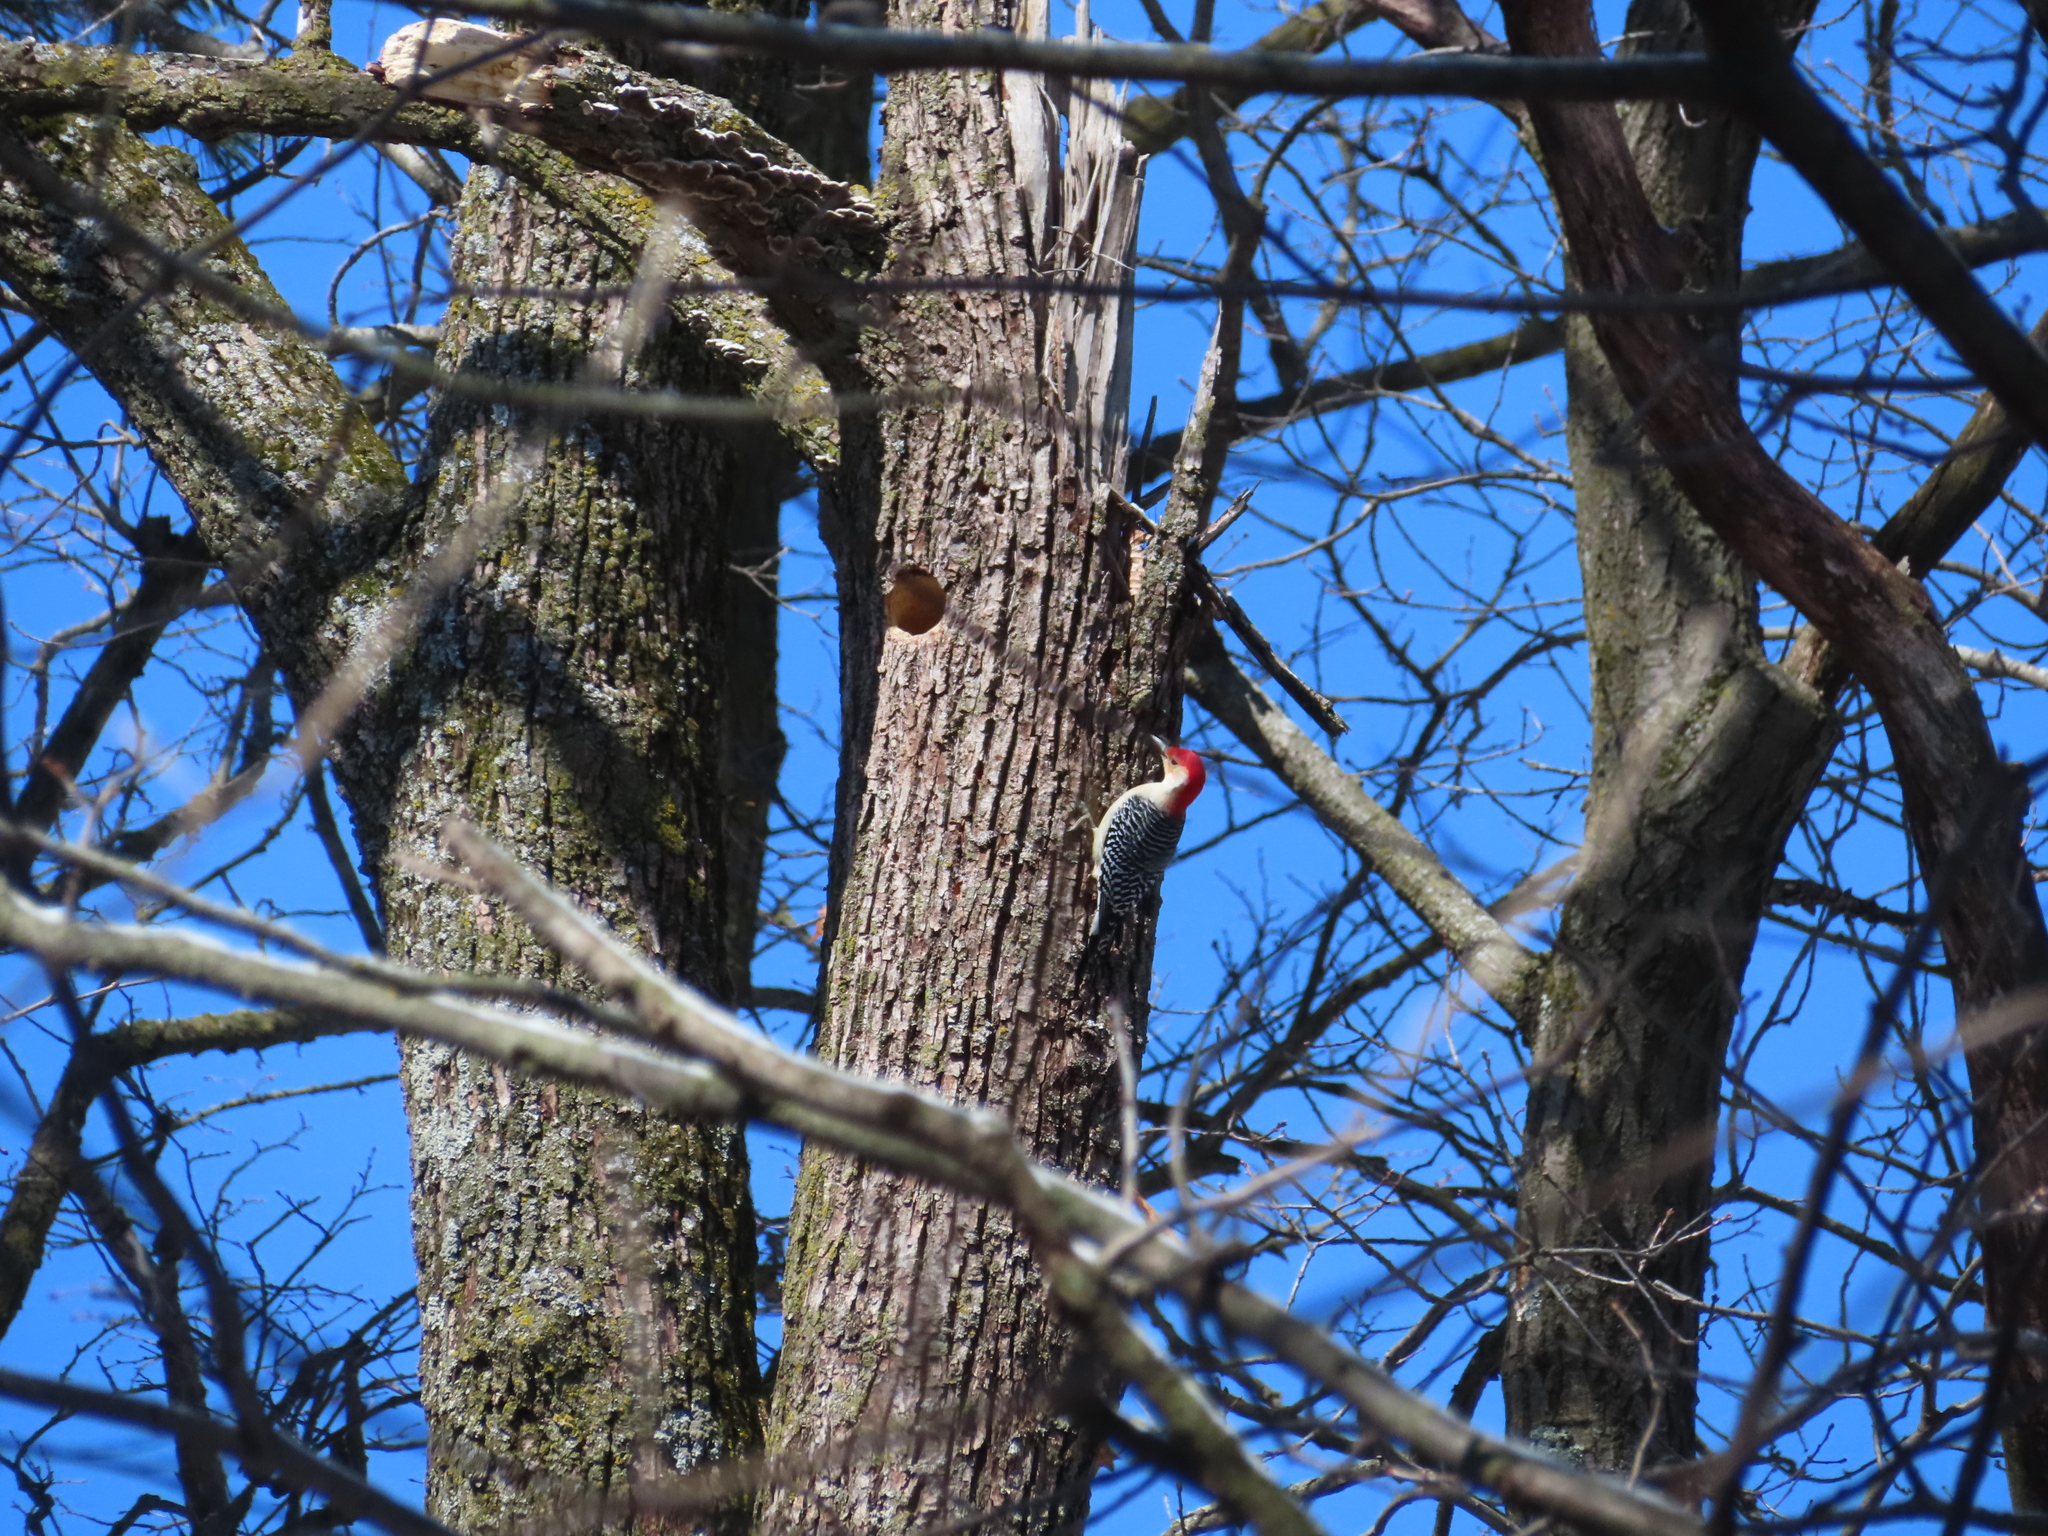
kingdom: Animalia
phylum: Chordata
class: Aves
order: Piciformes
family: Picidae
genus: Melanerpes
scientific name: Melanerpes carolinus
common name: Red-bellied woodpecker
